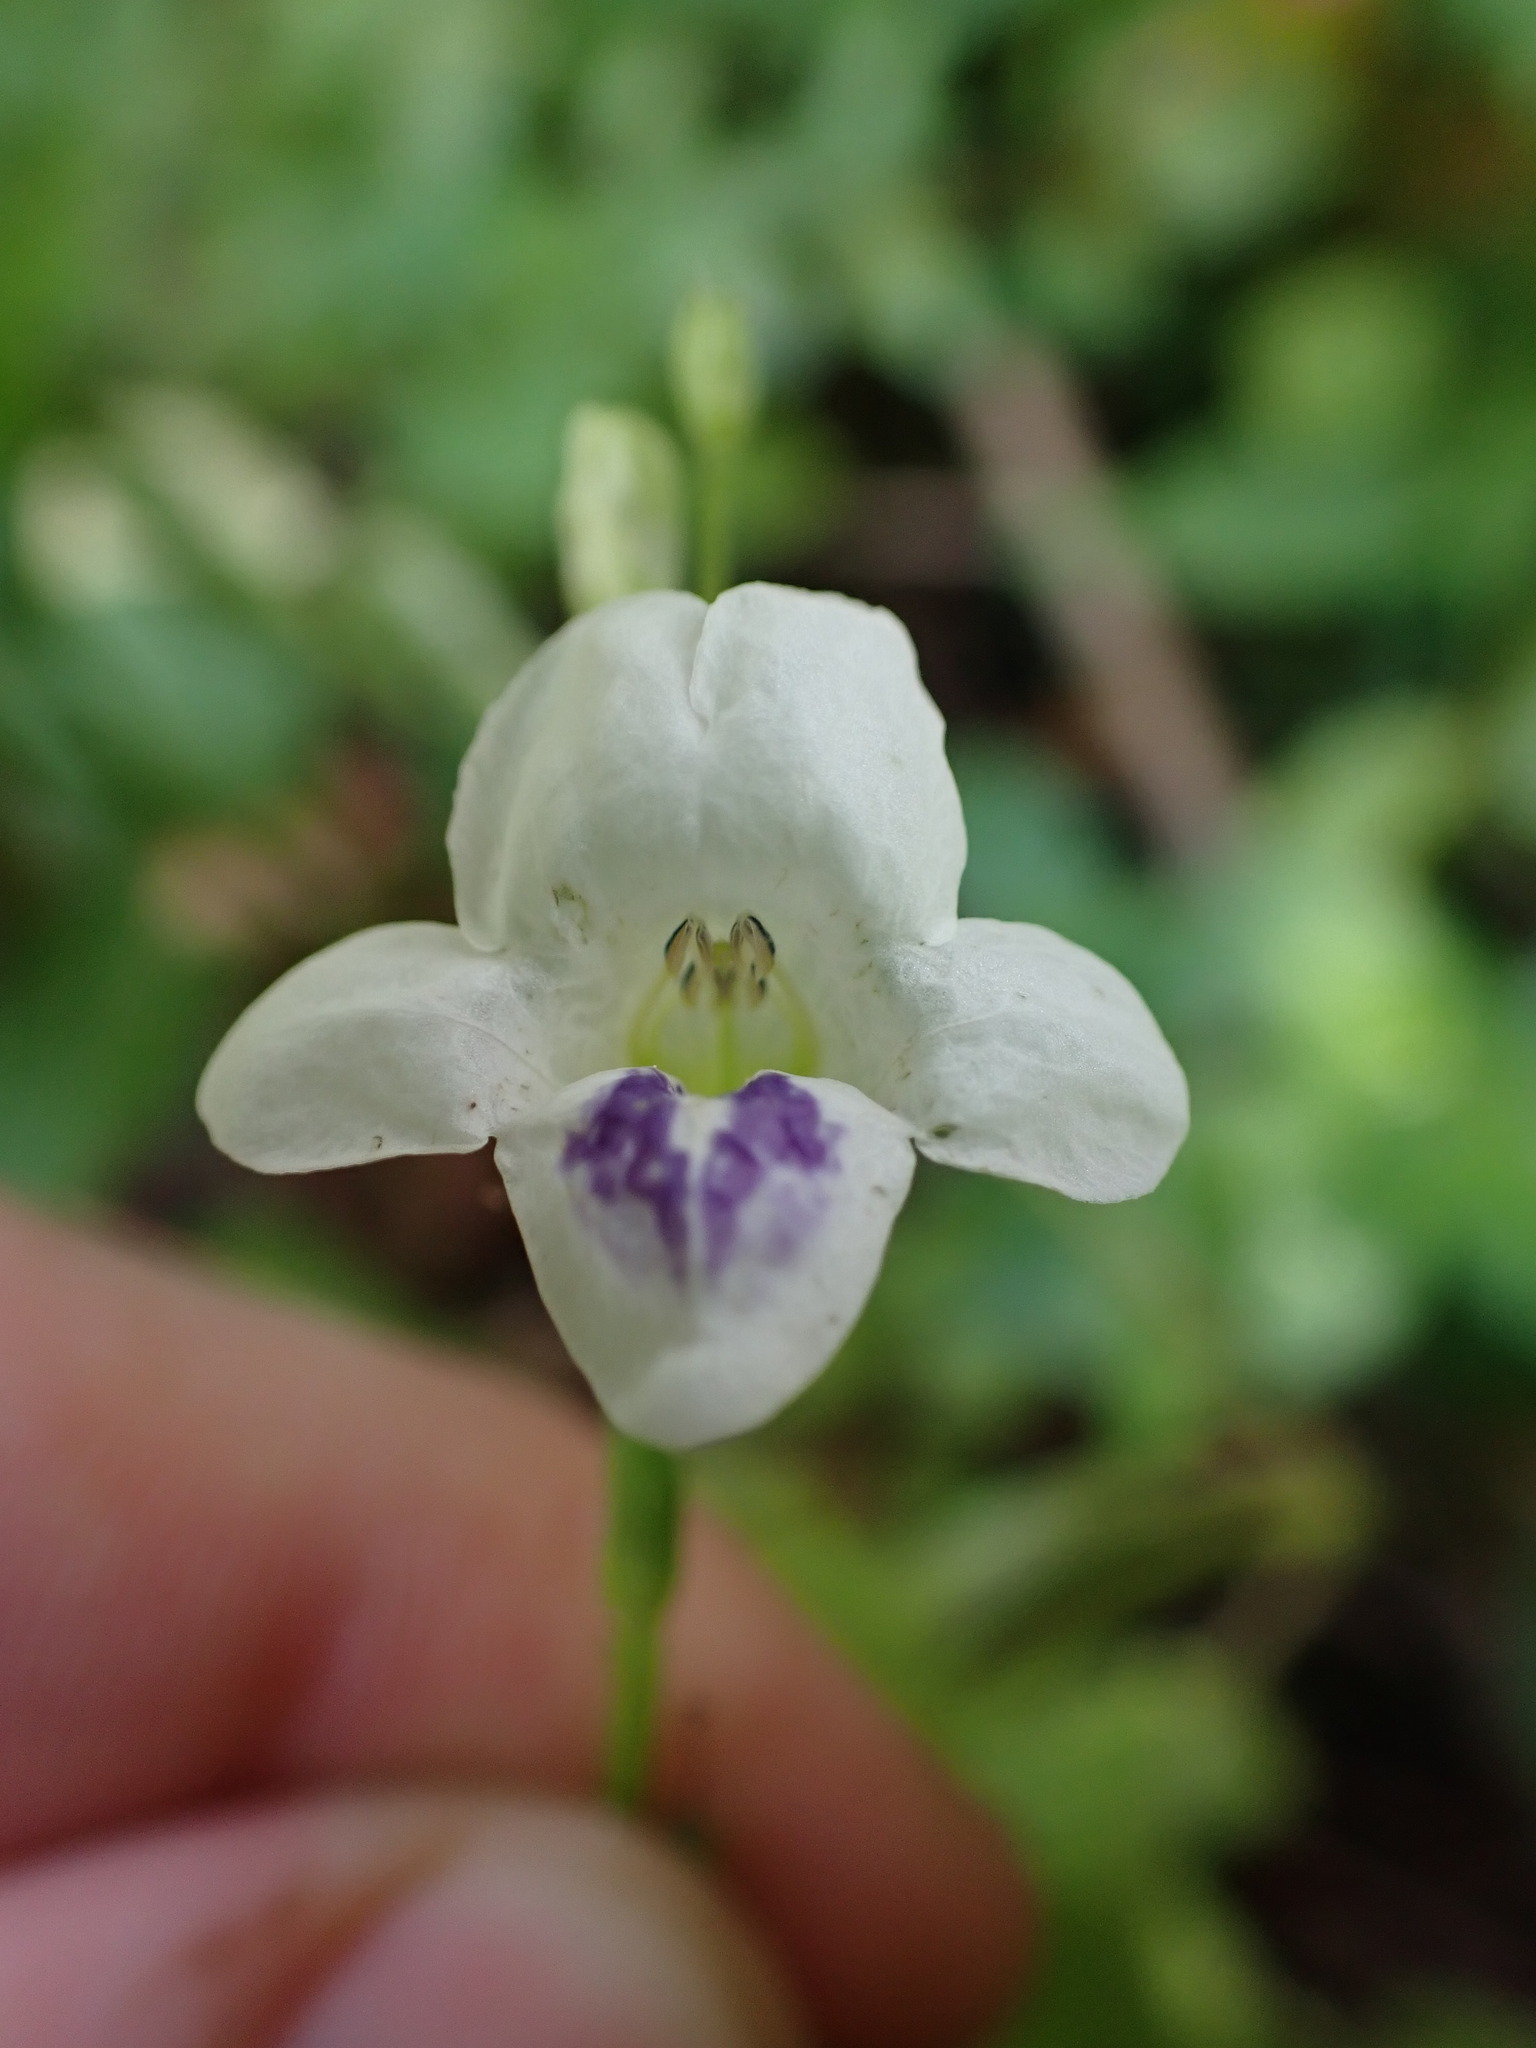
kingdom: Plantae
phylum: Tracheophyta
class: Magnoliopsida
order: Lamiales
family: Acanthaceae
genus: Asystasia
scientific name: Asystasia intrusa
